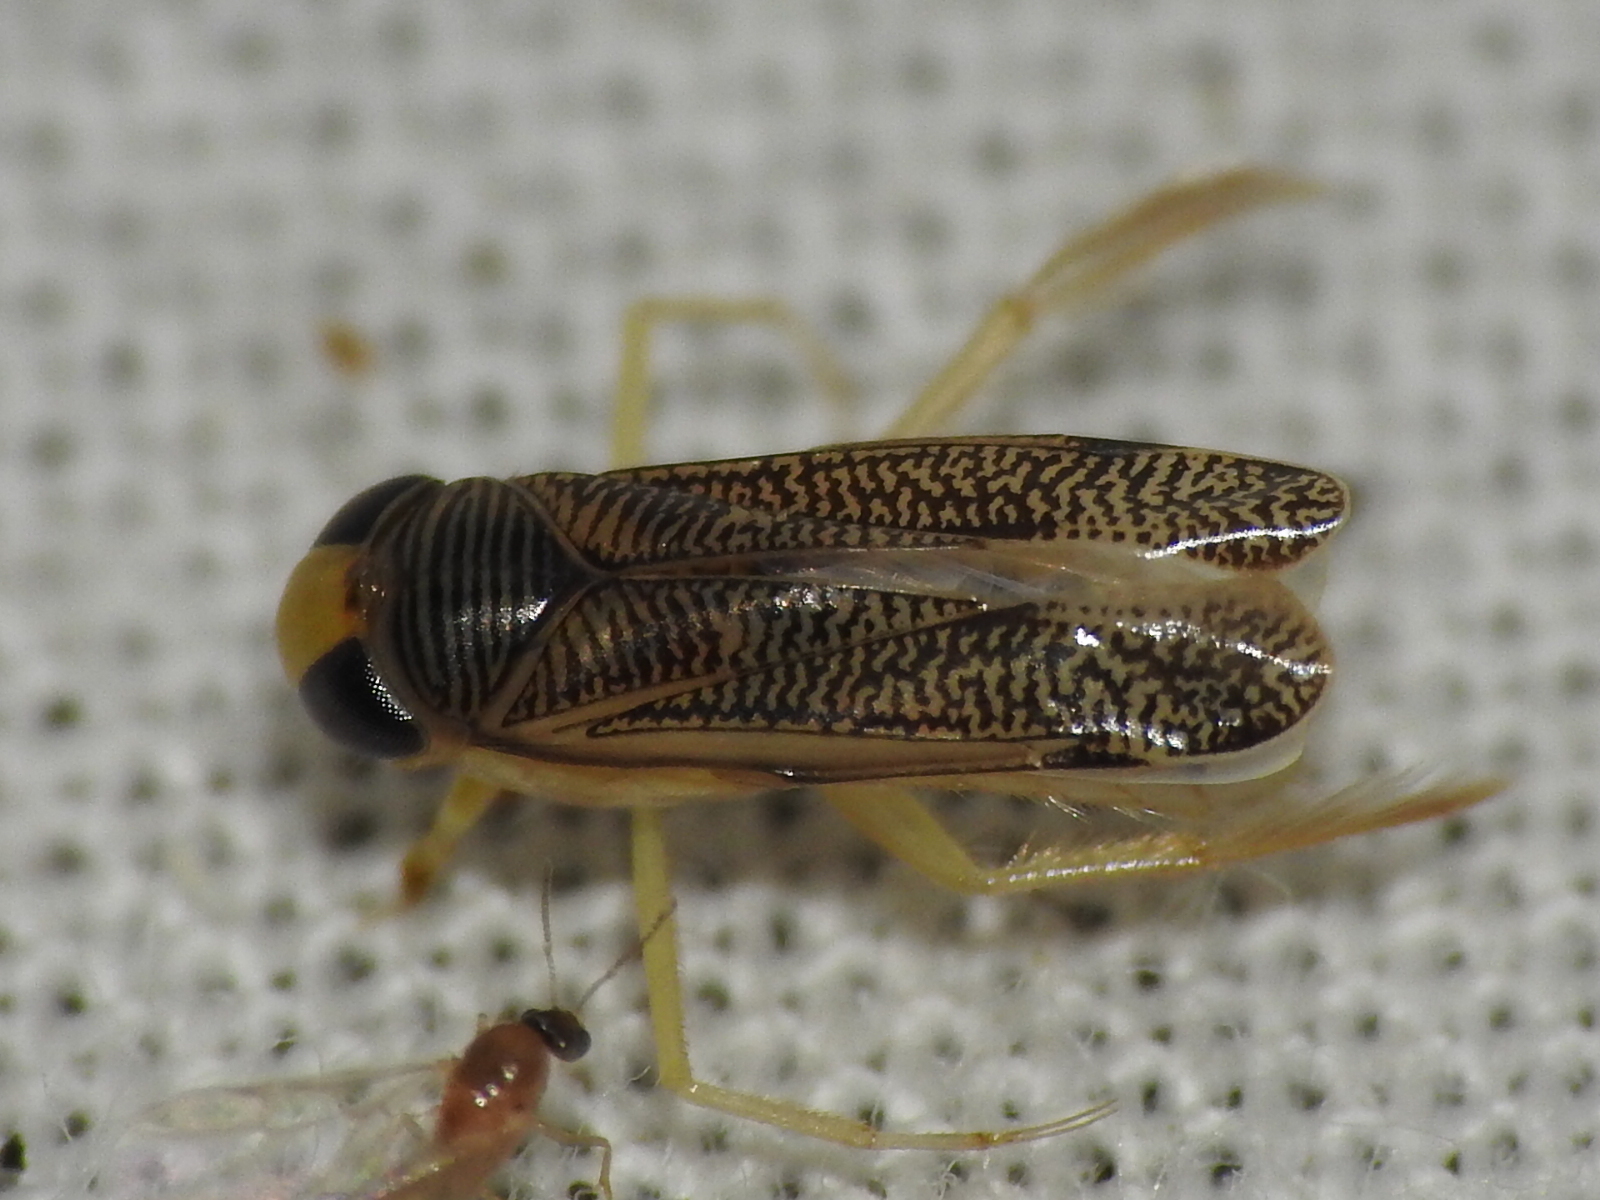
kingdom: Animalia
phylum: Arthropoda
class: Insecta
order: Hemiptera
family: Corixidae
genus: Trichocorixa
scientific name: Trichocorixa
